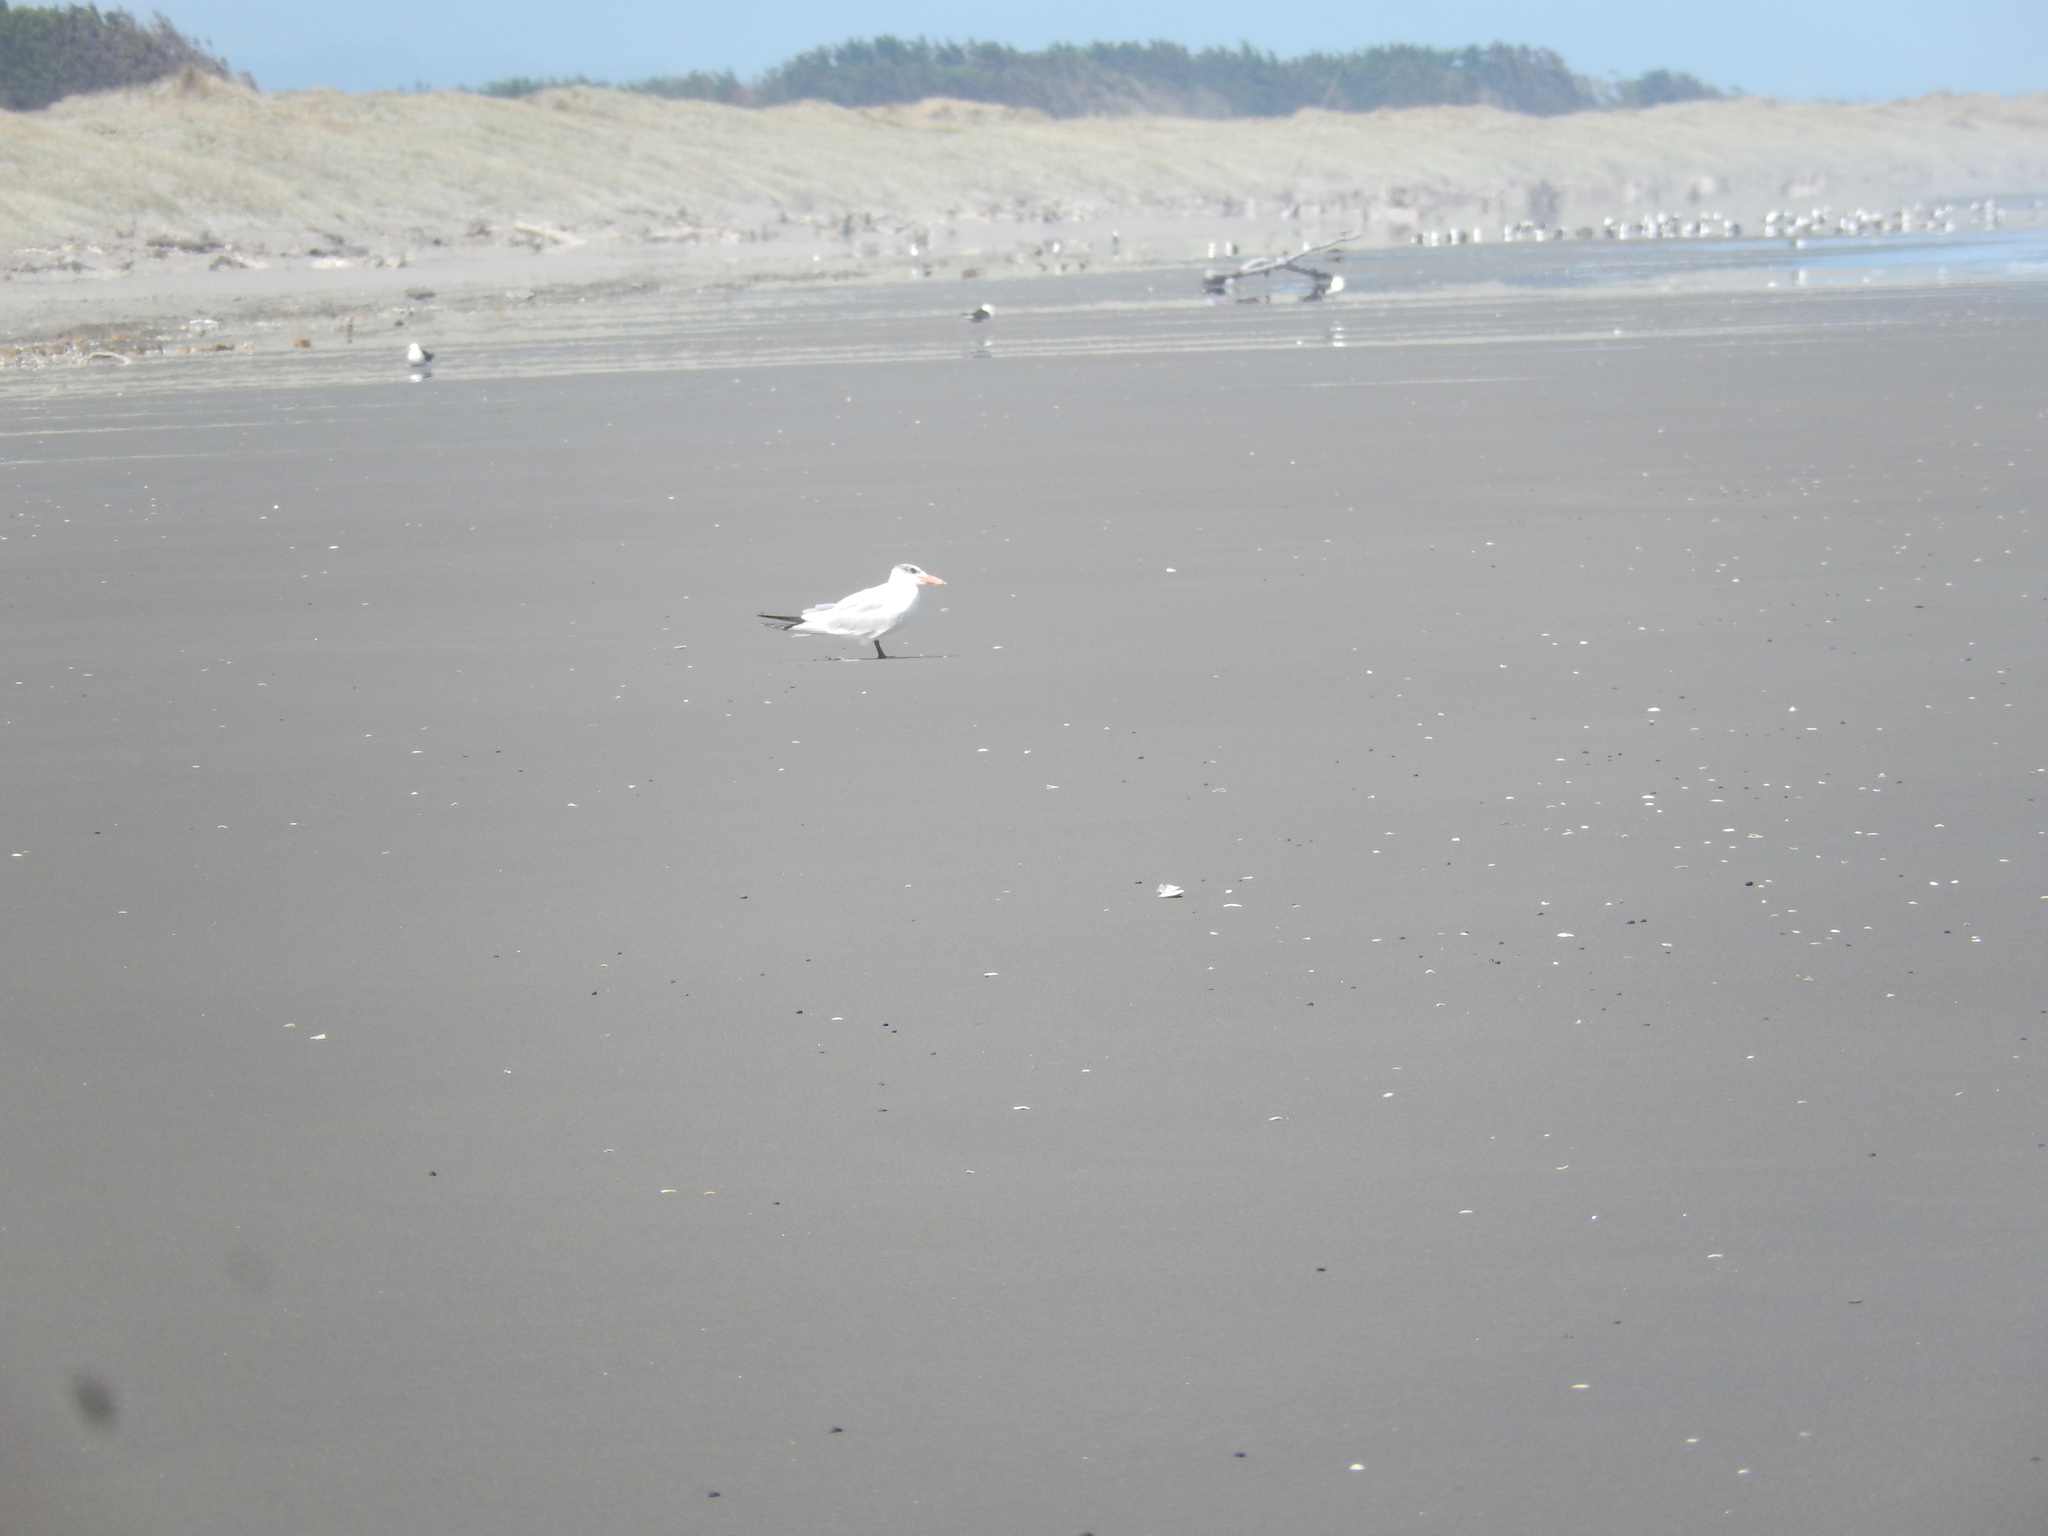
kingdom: Animalia
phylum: Chordata
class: Aves
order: Charadriiformes
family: Laridae
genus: Hydroprogne
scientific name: Hydroprogne caspia
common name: Caspian tern
